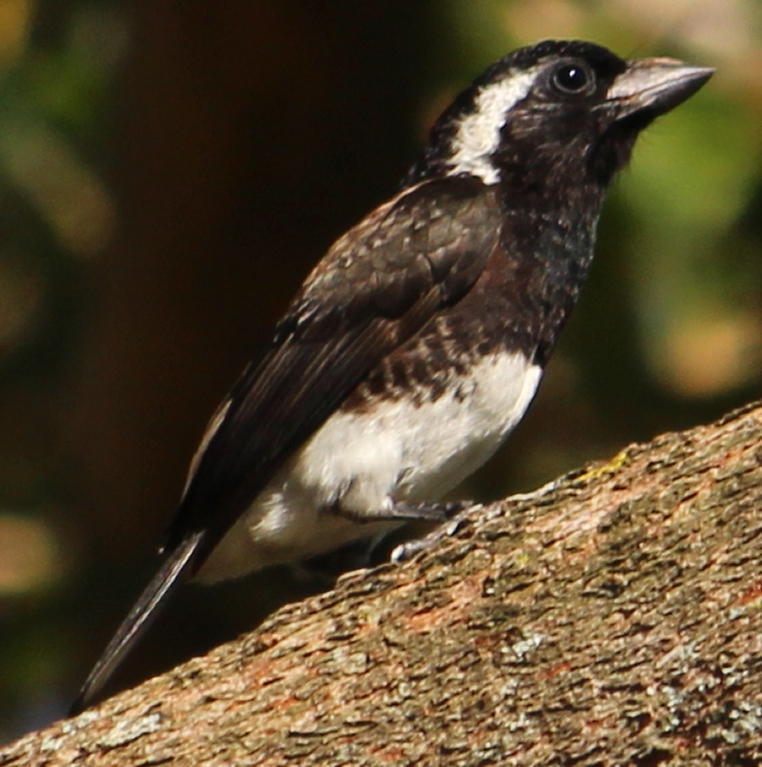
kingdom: Animalia
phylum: Chordata
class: Aves
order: Piciformes
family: Lybiidae
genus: Stactolaema
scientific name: Stactolaema leucotis
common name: White-eared barbet
